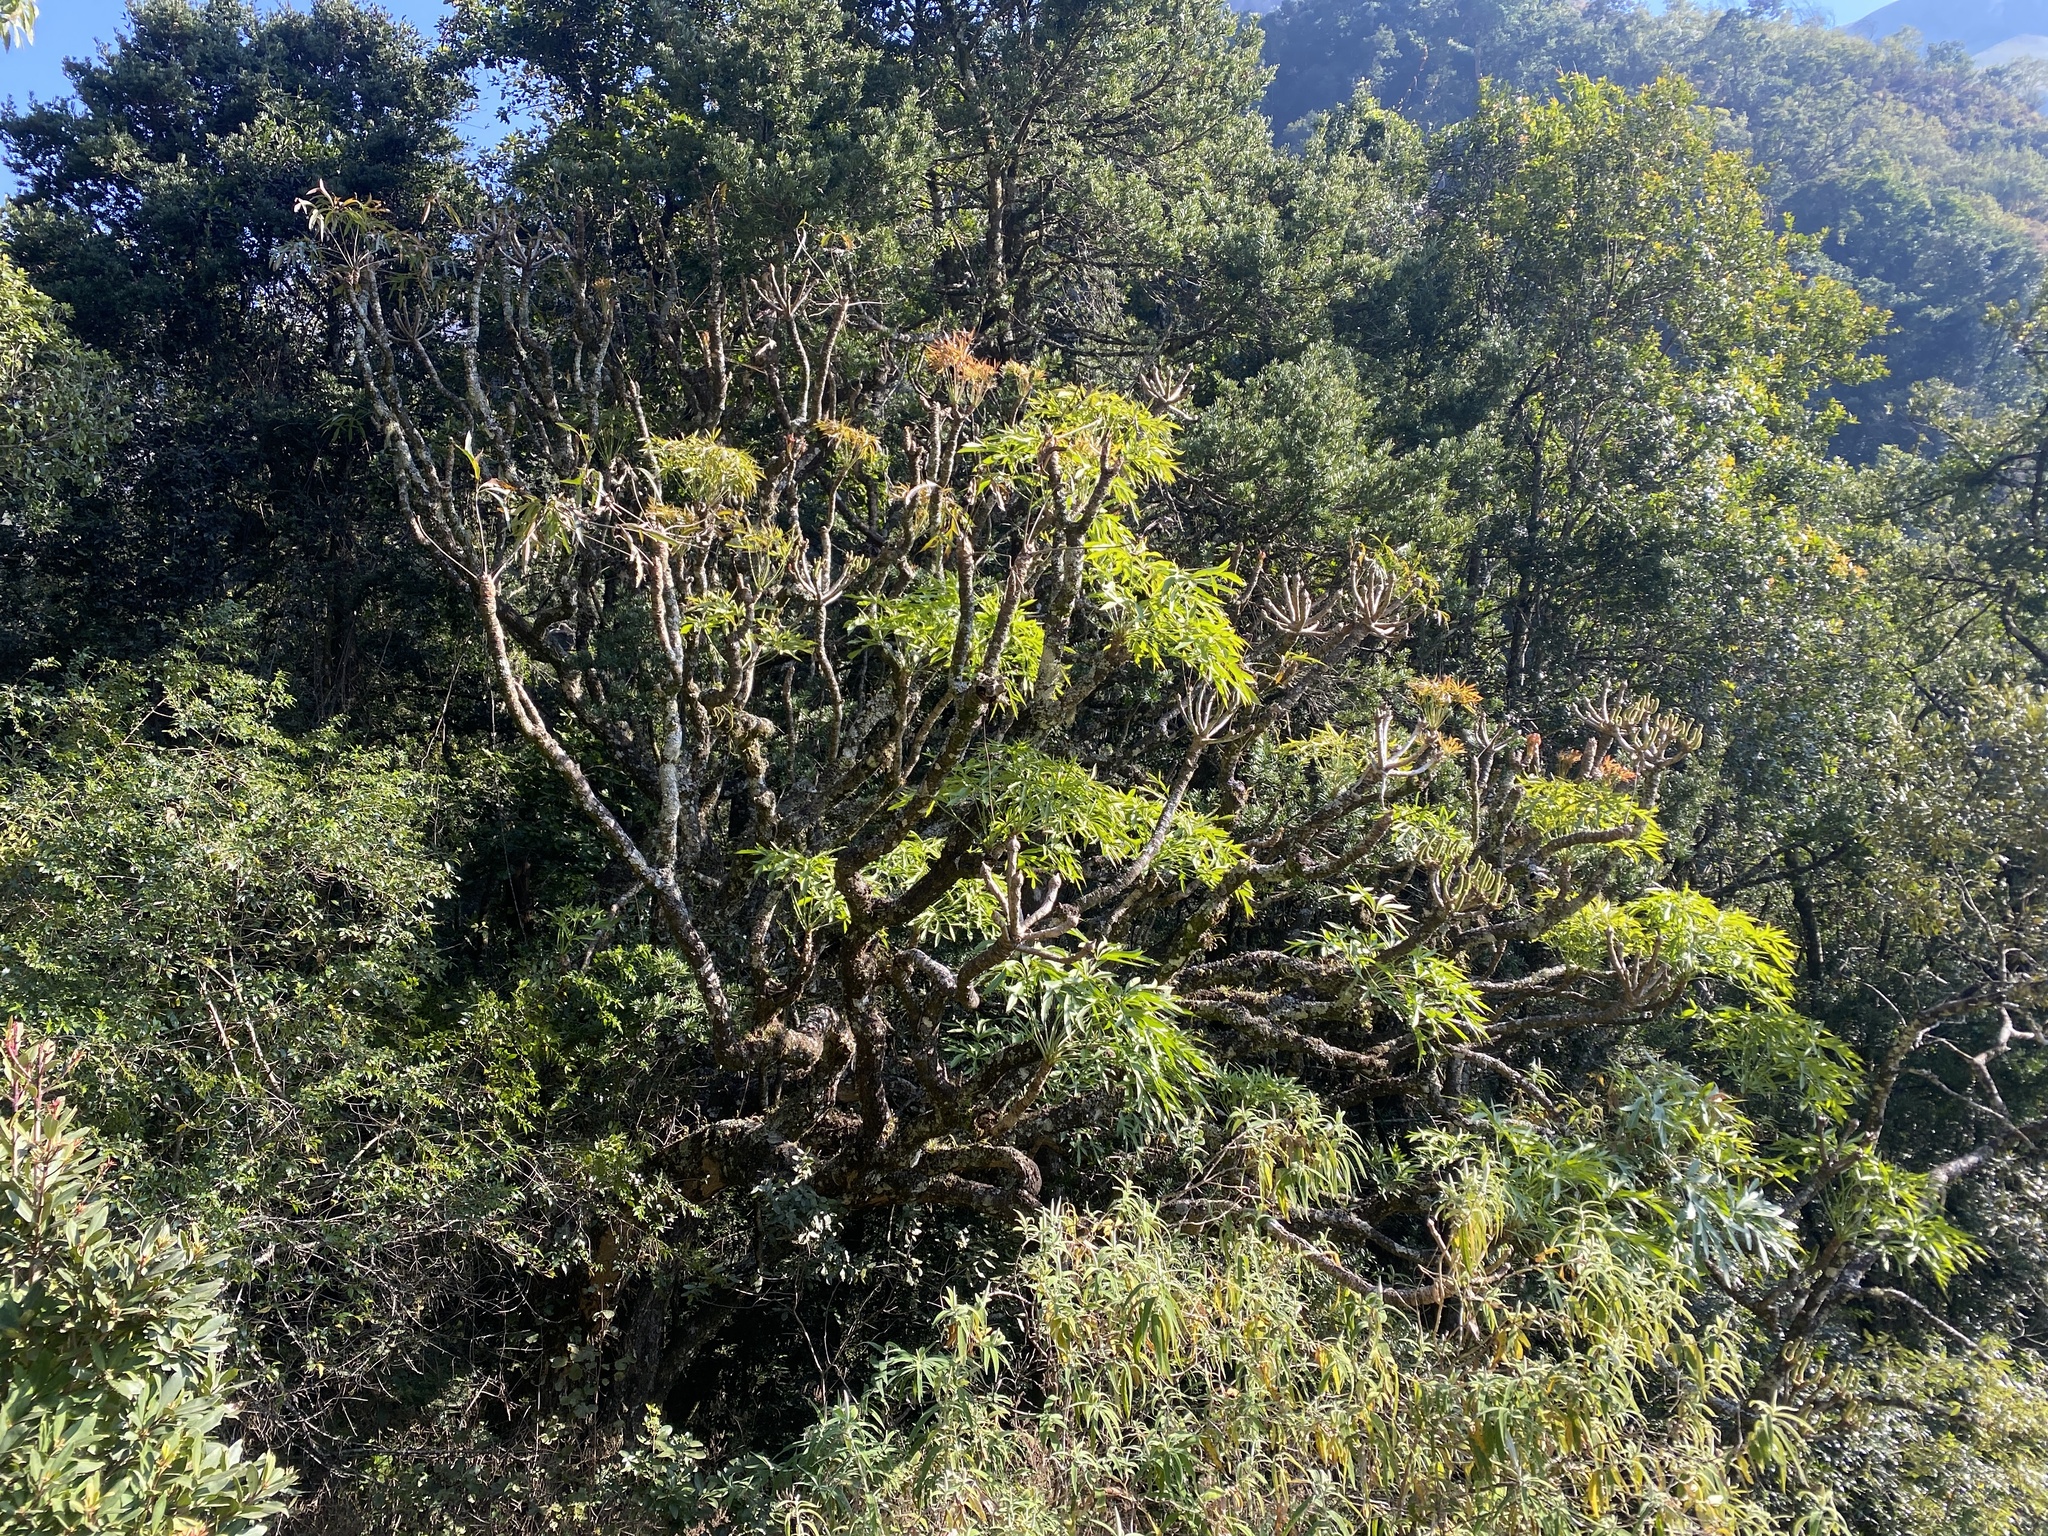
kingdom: Plantae
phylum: Tracheophyta
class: Magnoliopsida
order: Apiales
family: Araliaceae
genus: Cussonia
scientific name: Cussonia spicata
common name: Common cabbagetree
